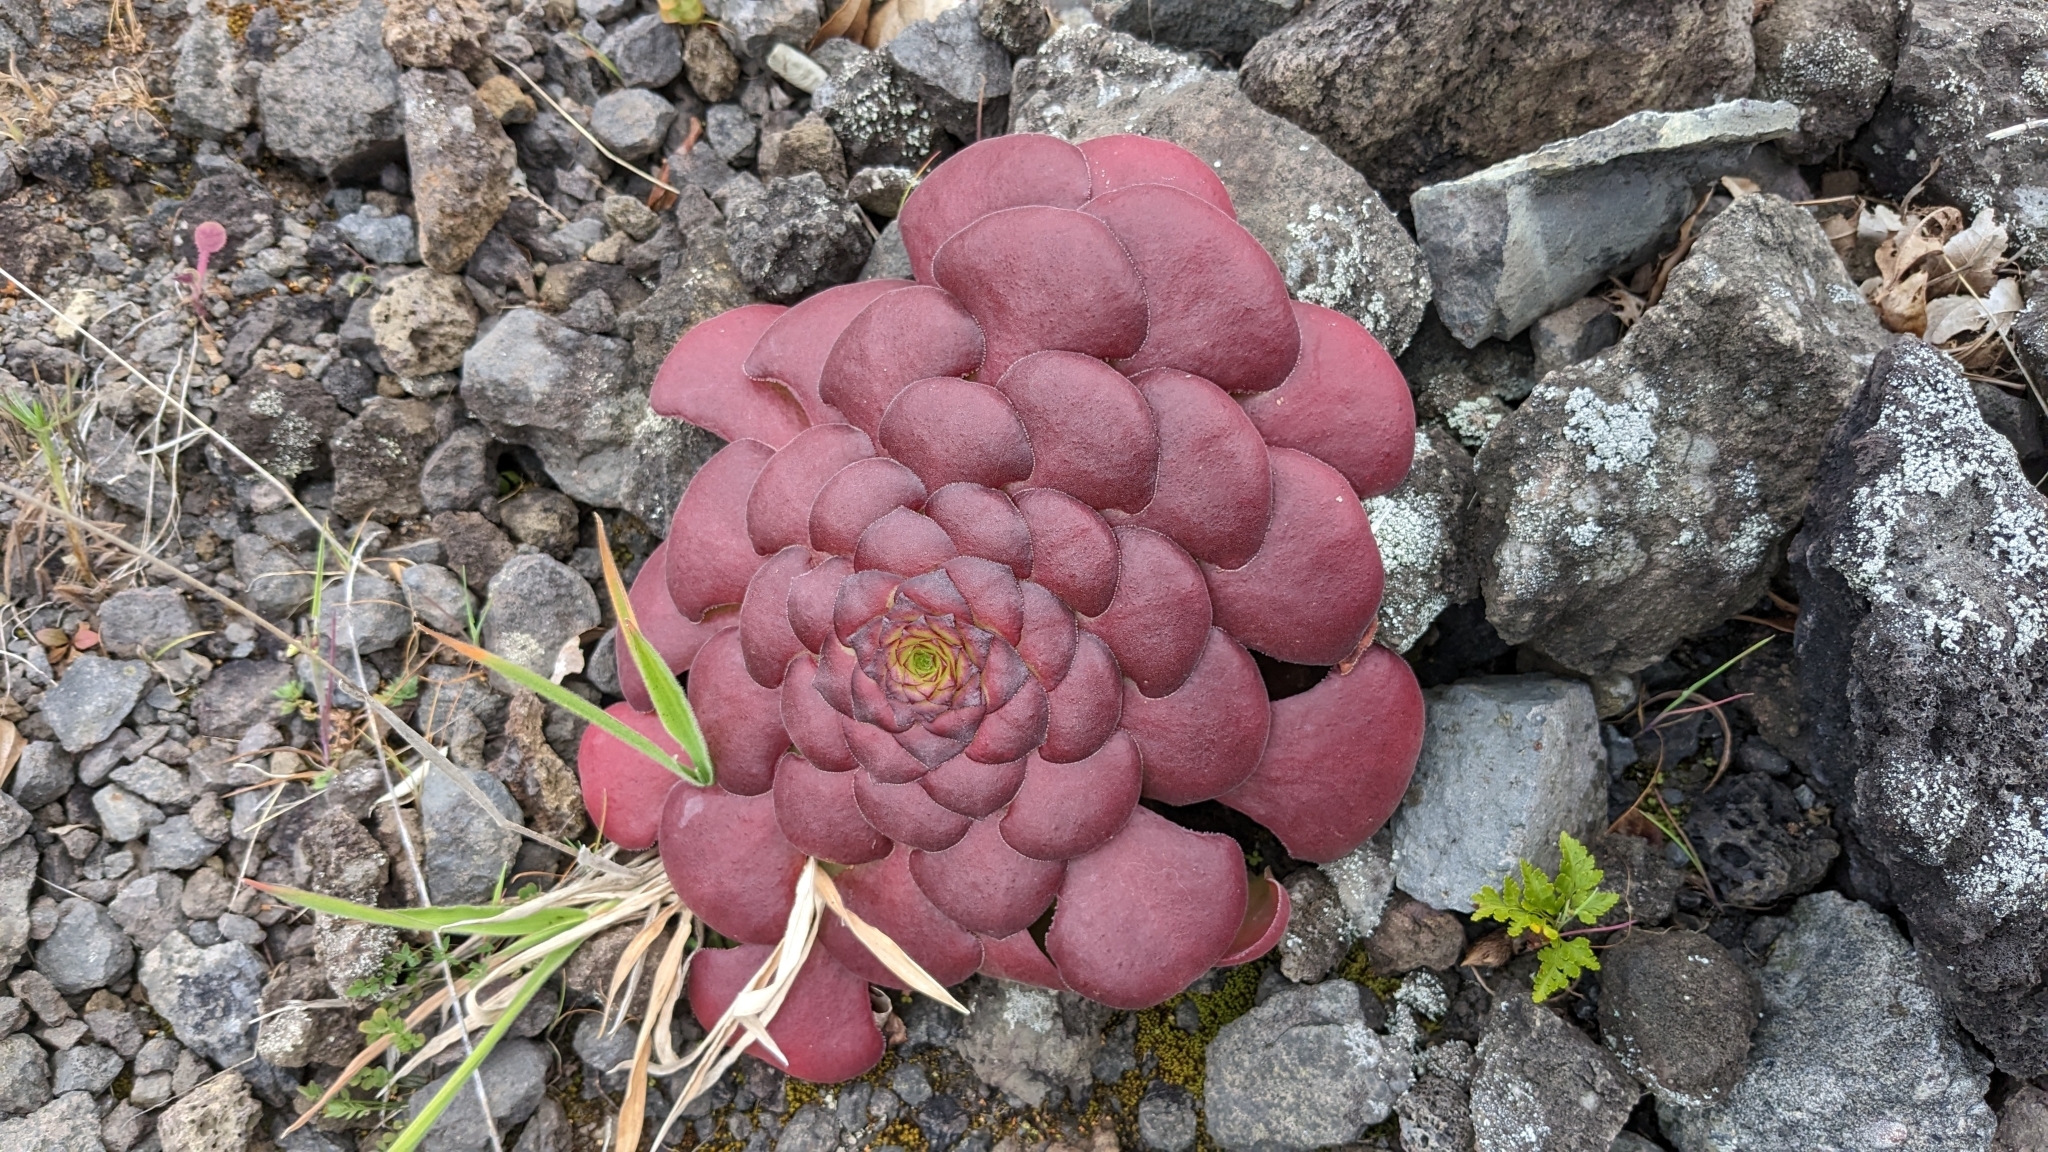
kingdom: Plantae
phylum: Tracheophyta
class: Magnoliopsida
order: Saxifragales
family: Crassulaceae
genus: Aeonium
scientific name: Aeonium glandulosum
